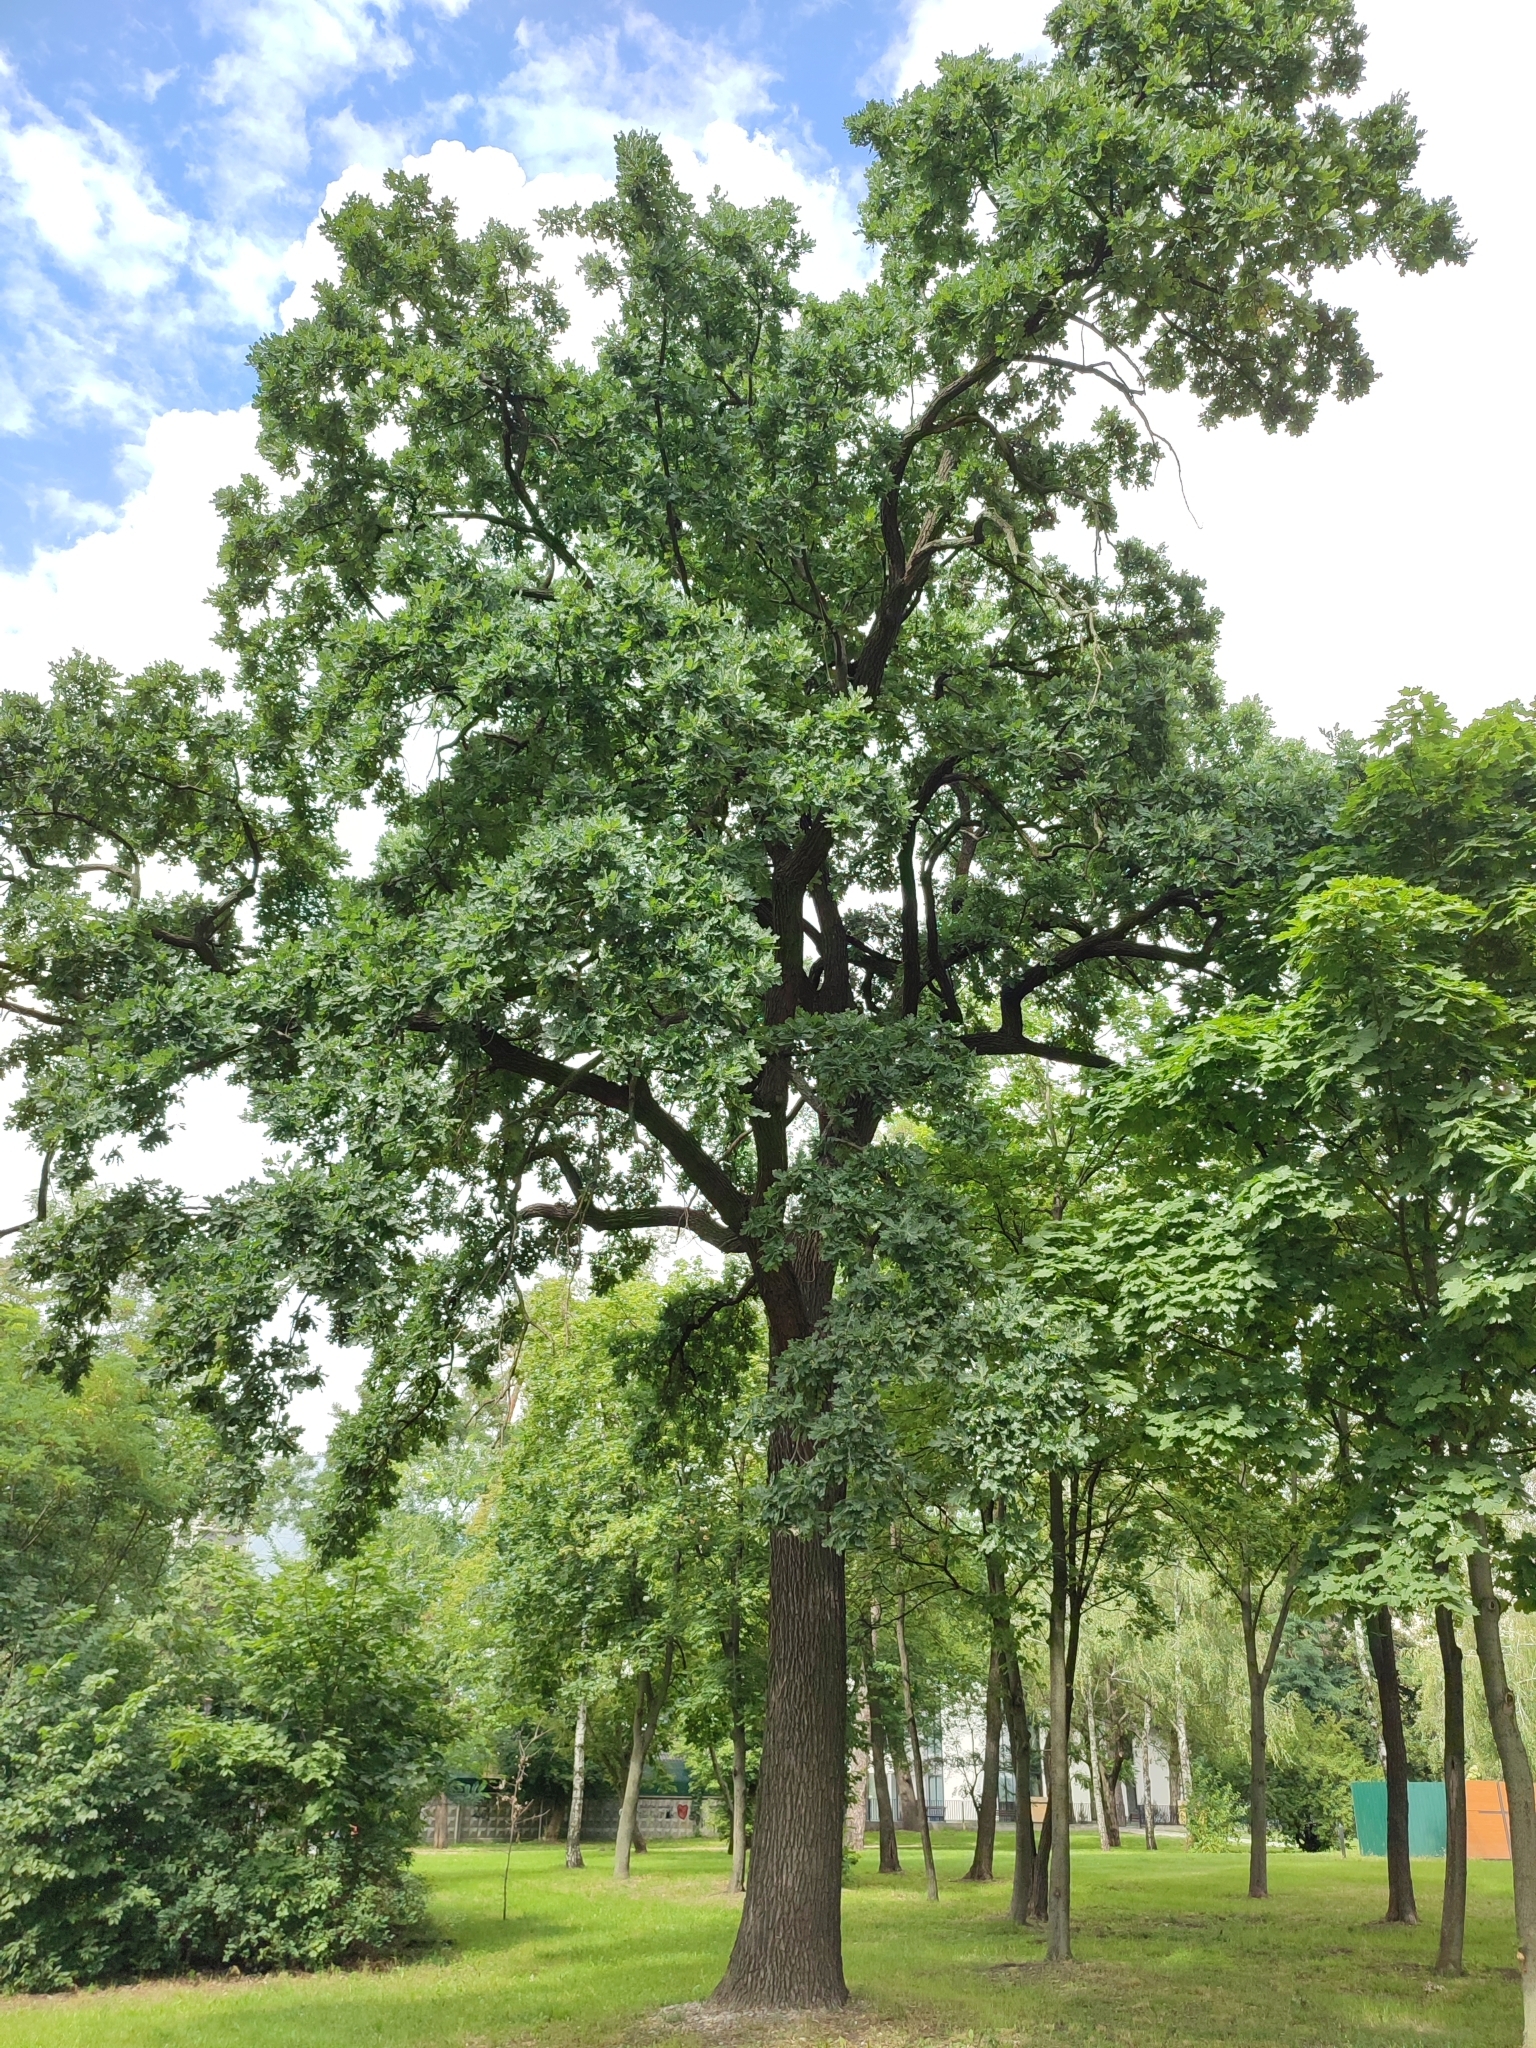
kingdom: Plantae
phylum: Tracheophyta
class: Magnoliopsida
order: Fagales
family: Fagaceae
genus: Quercus
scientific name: Quercus robur
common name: Pedunculate oak
